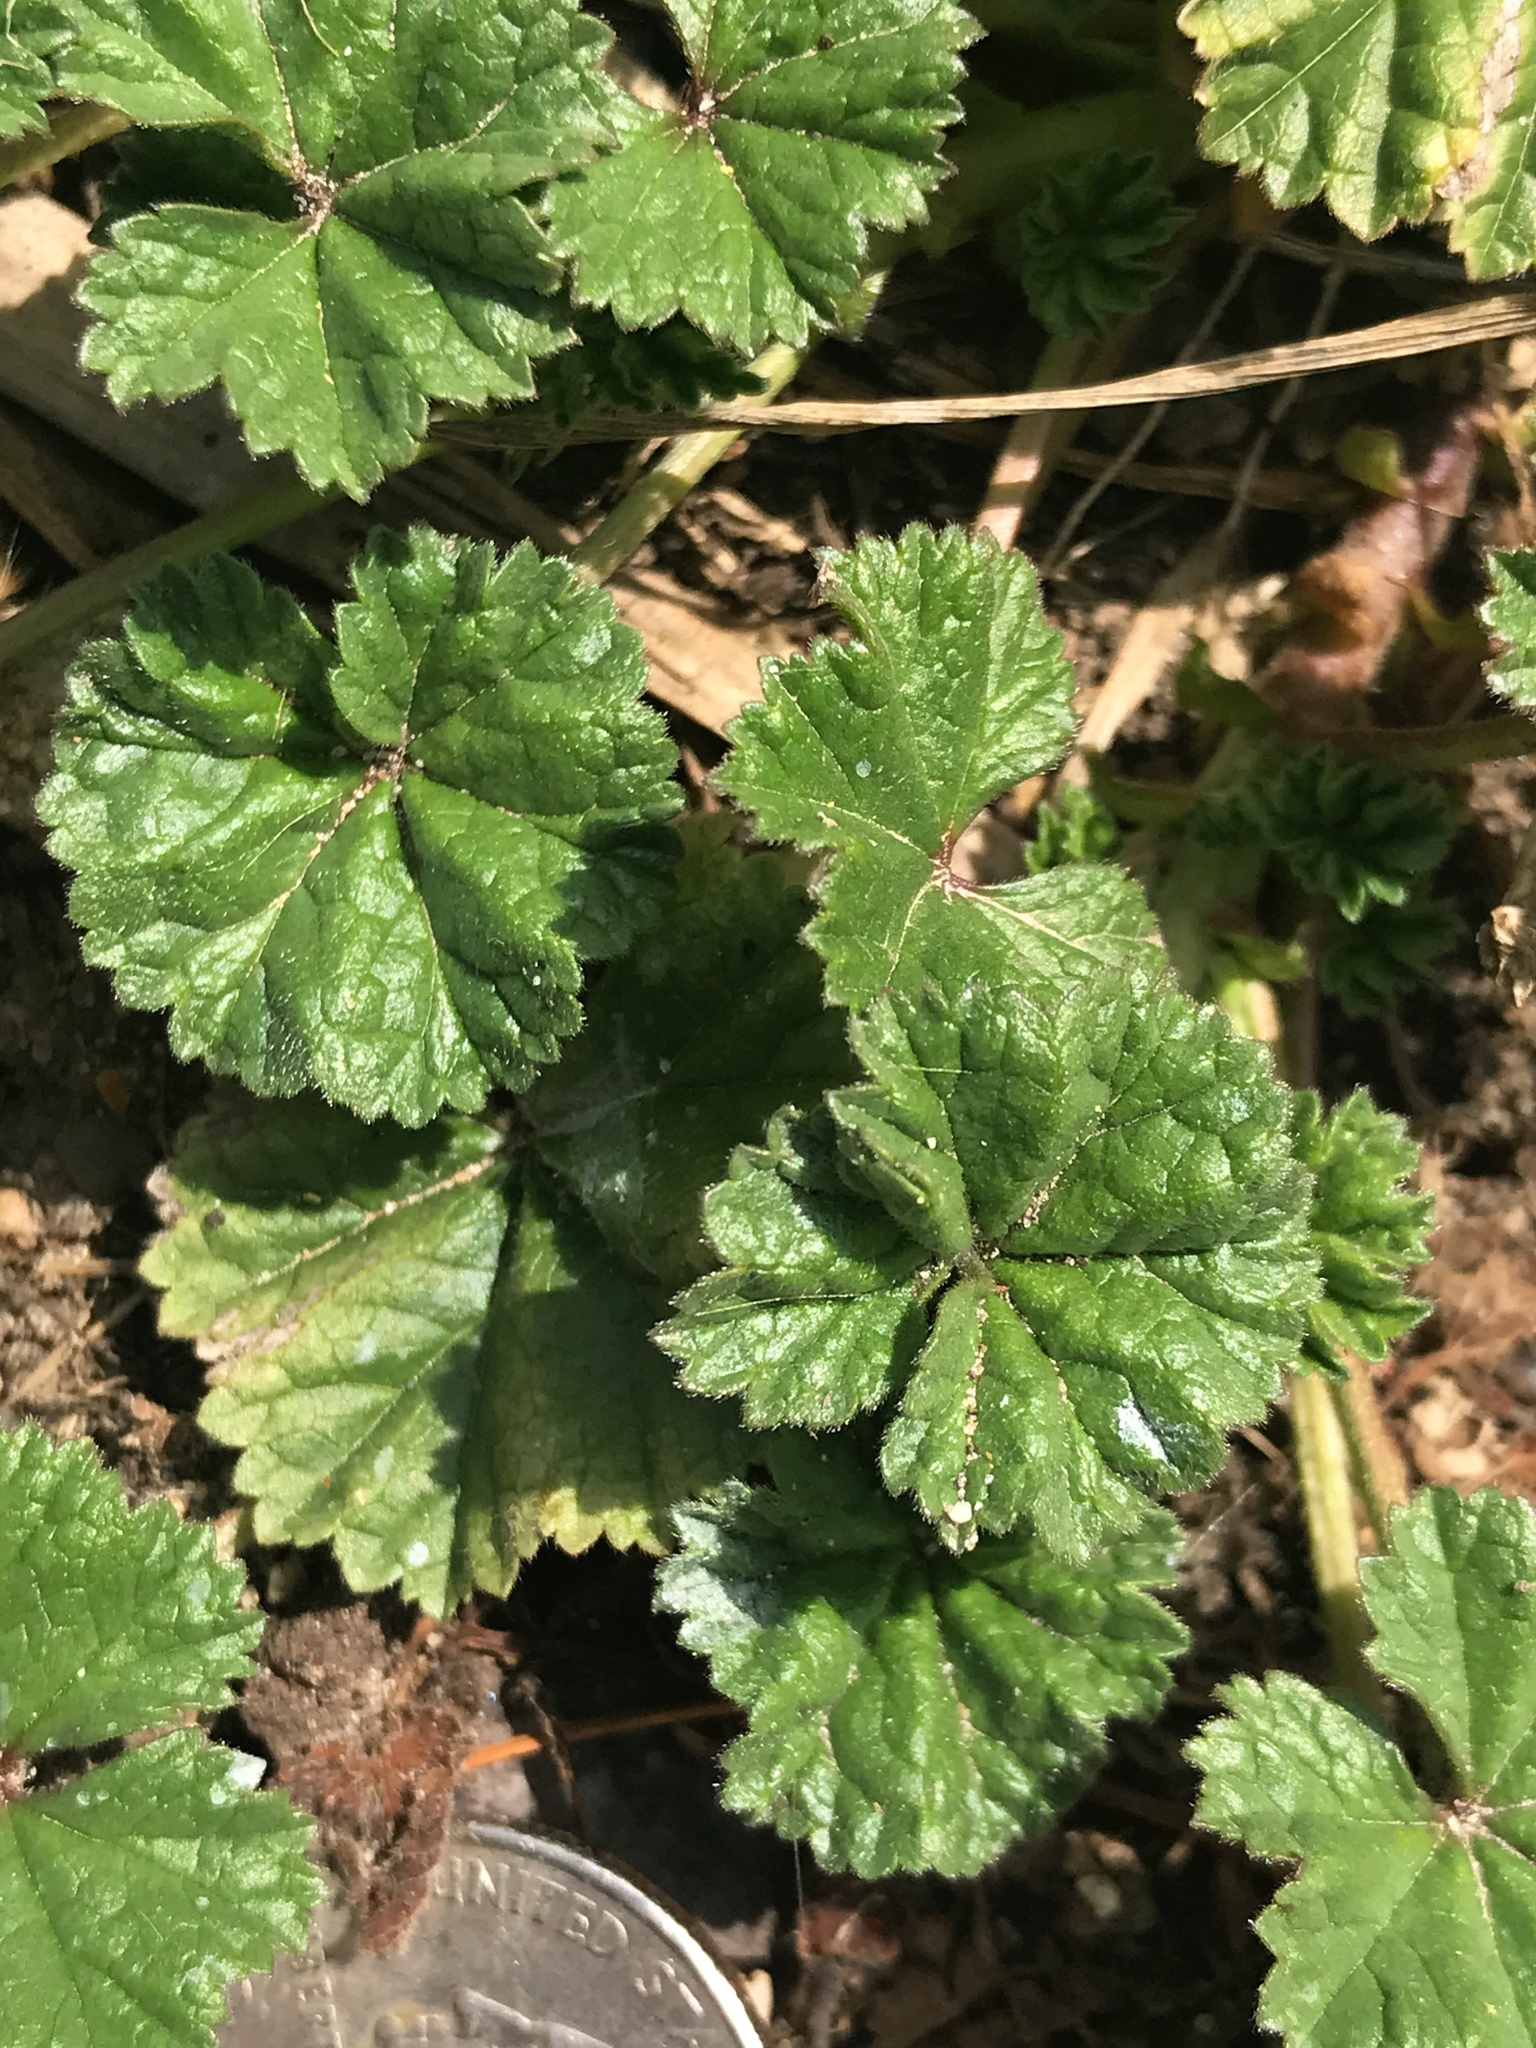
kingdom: Plantae
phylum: Tracheophyta
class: Magnoliopsida
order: Malvales
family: Malvaceae
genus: Malva
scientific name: Malva neglecta
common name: Common mallow
